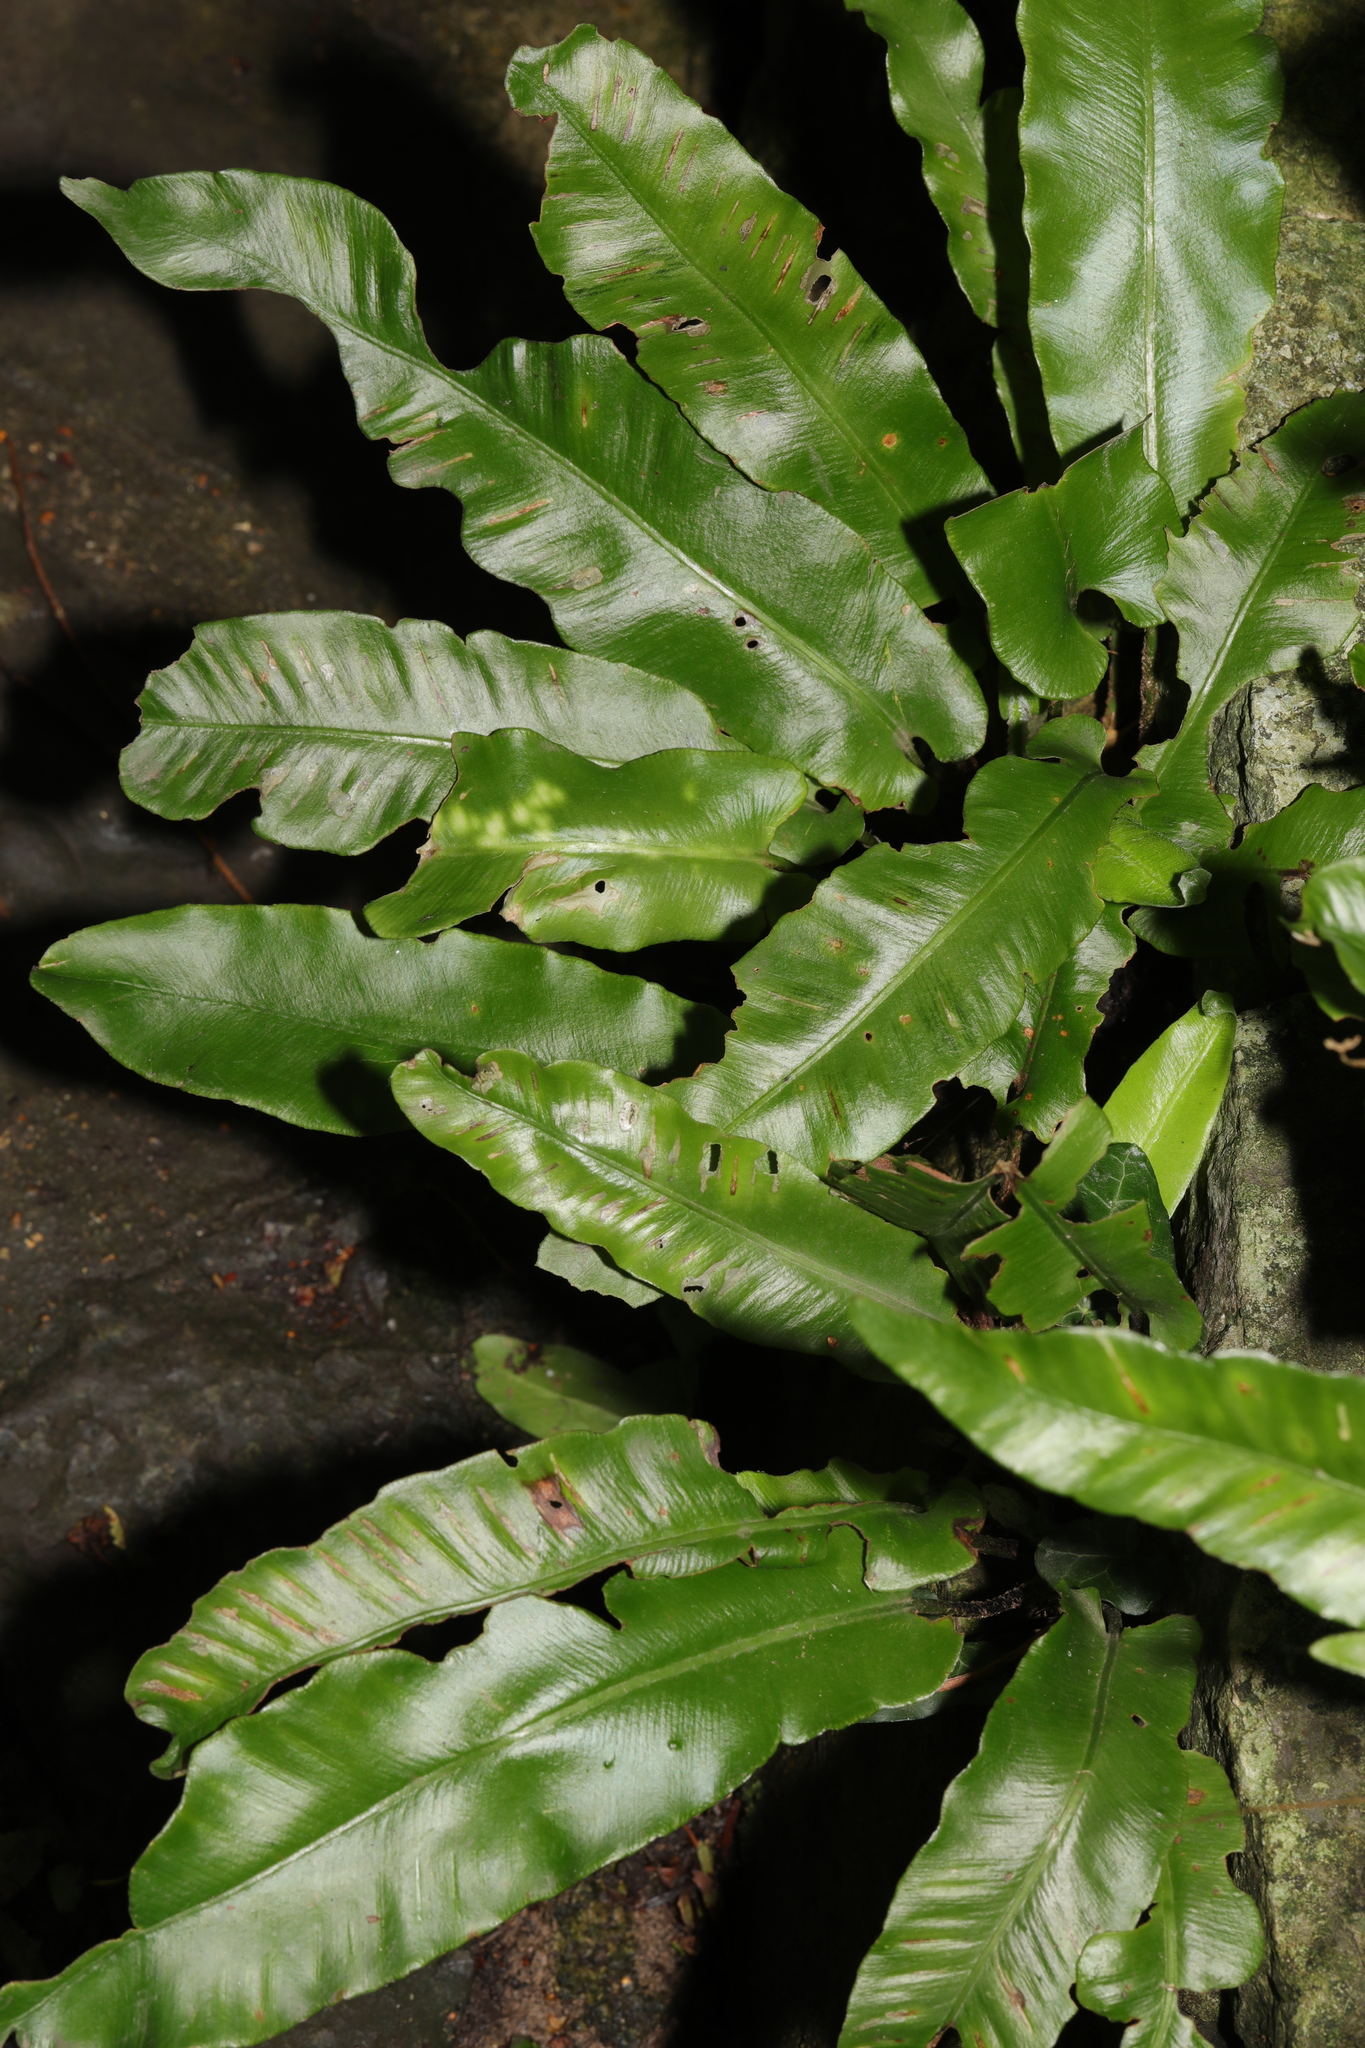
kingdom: Plantae
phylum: Tracheophyta
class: Polypodiopsida
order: Polypodiales
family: Aspleniaceae
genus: Asplenium
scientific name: Asplenium scolopendrium
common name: Hart's-tongue fern
